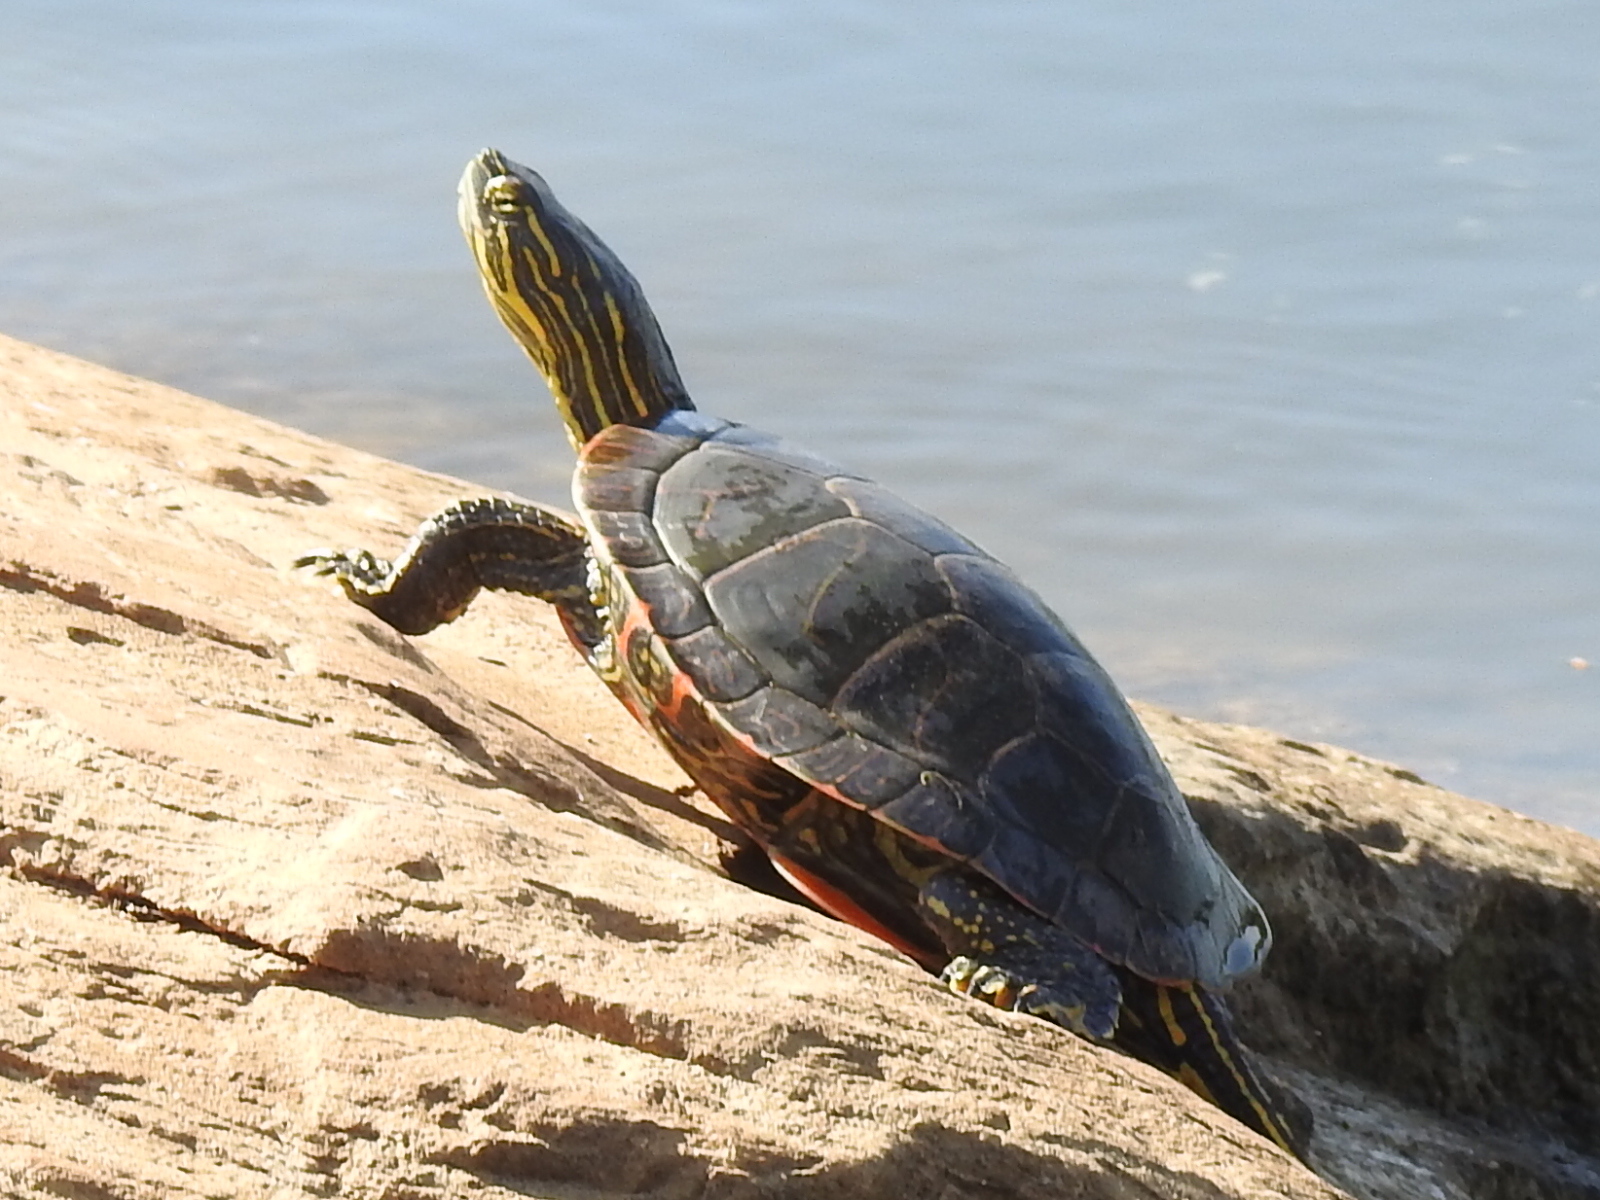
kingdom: Animalia
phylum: Chordata
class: Testudines
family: Emydidae
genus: Chrysemys
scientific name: Chrysemys picta
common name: Painted turtle
